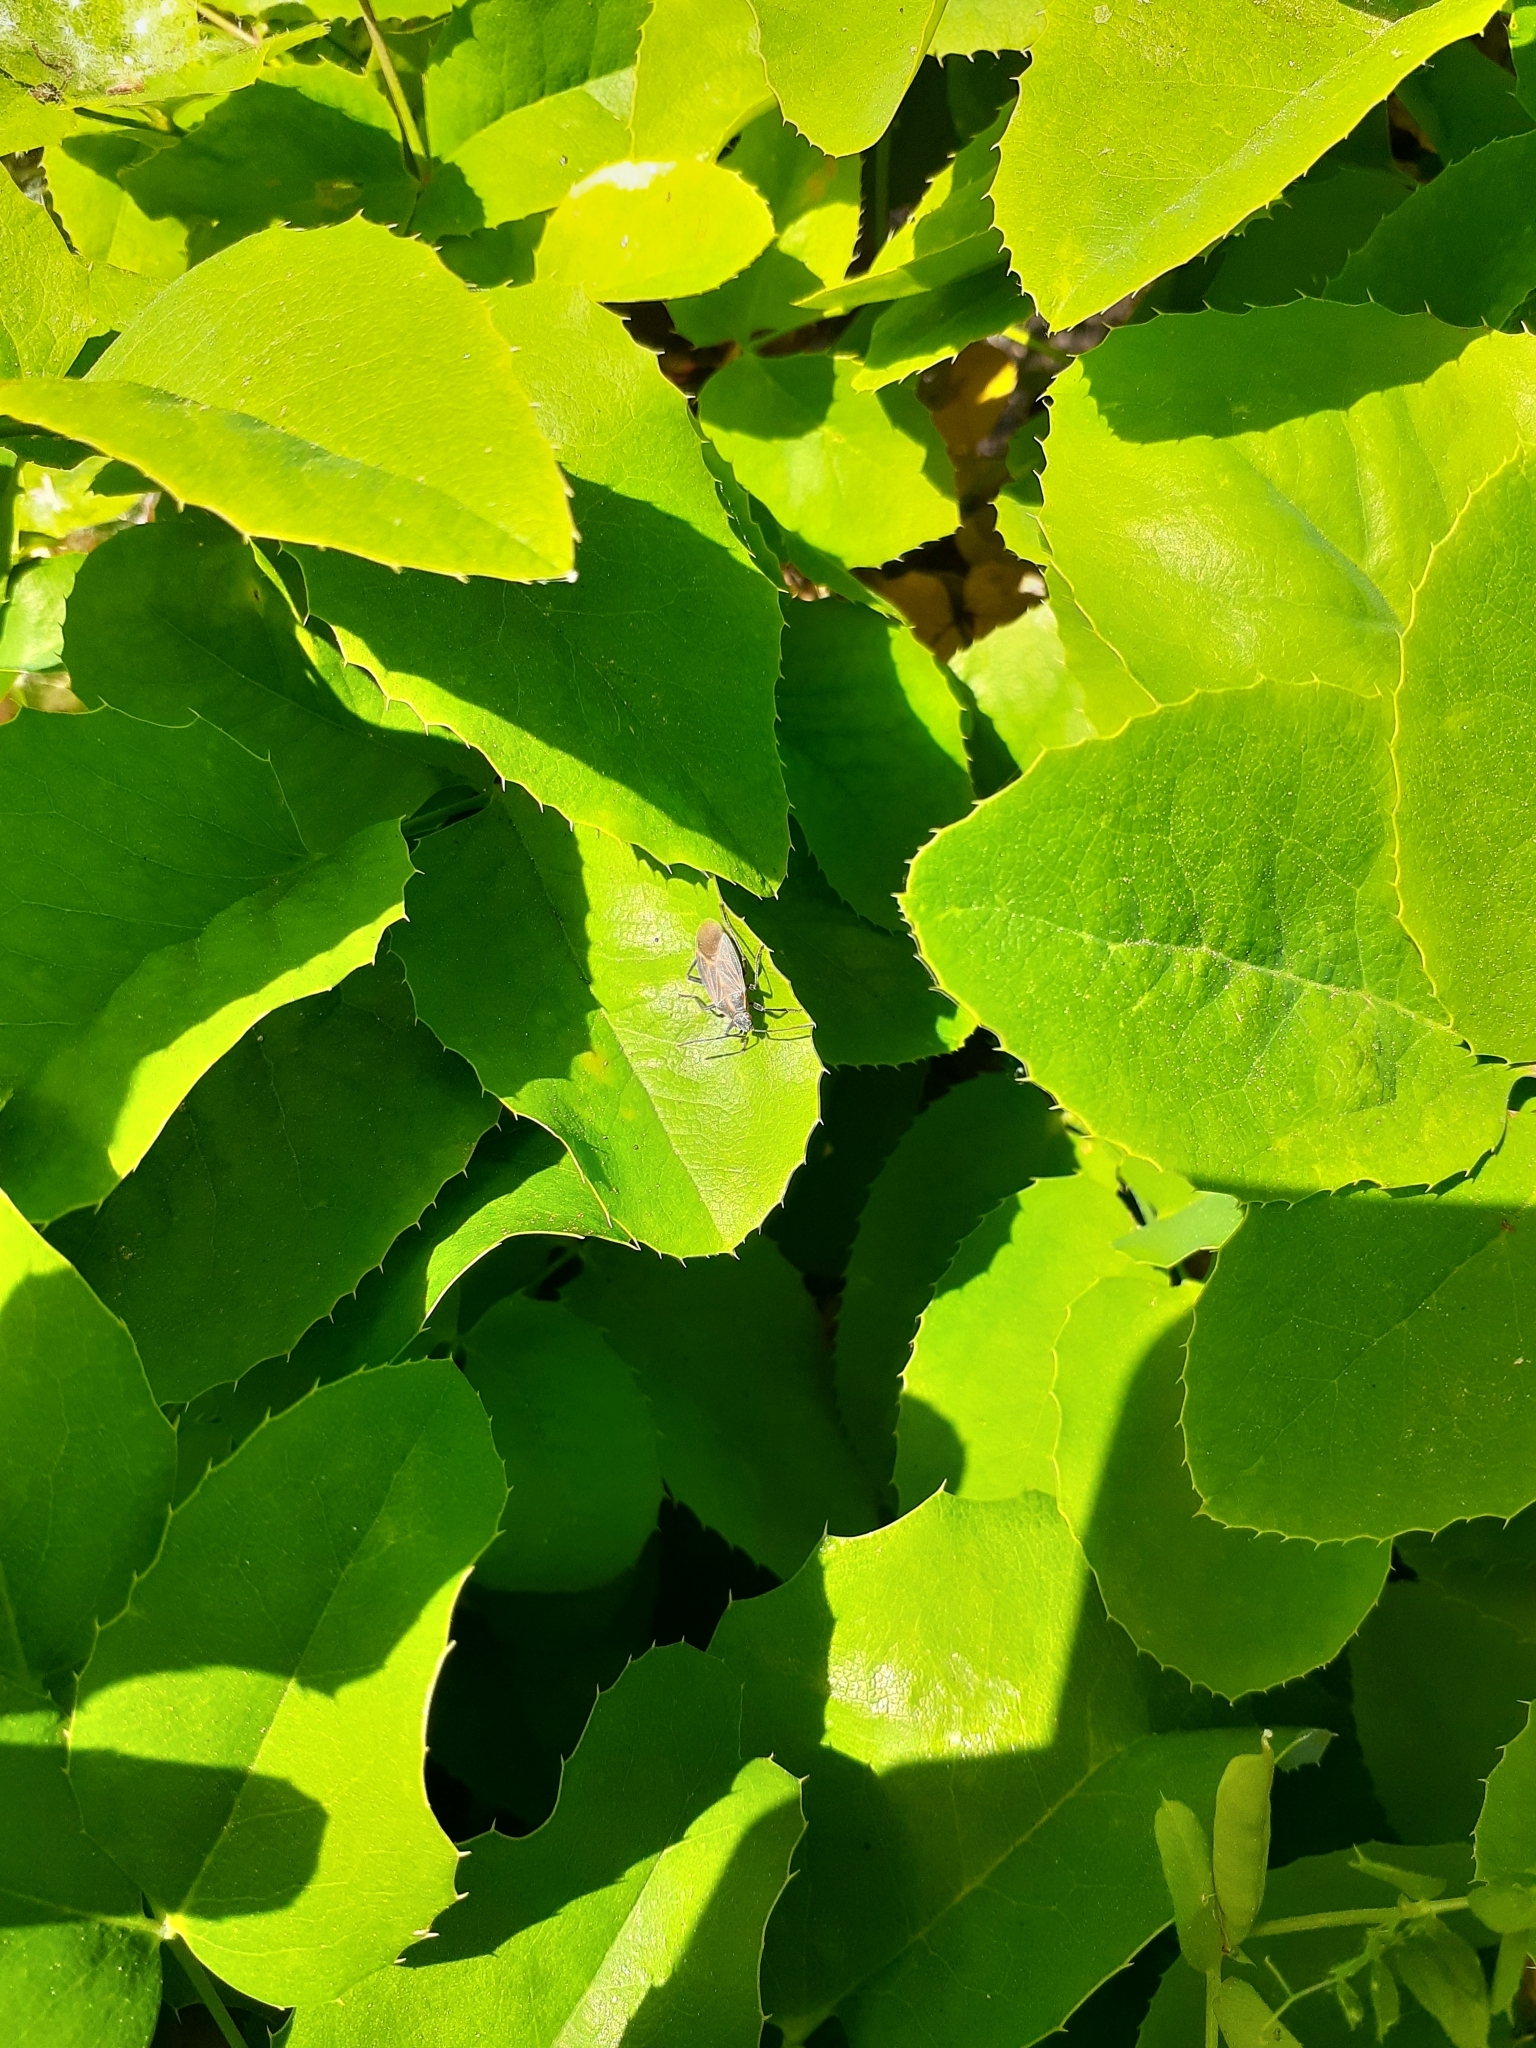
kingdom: Animalia
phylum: Arthropoda
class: Insecta
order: Hemiptera
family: Rhopalidae
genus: Boisea
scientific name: Boisea rubrolineata
